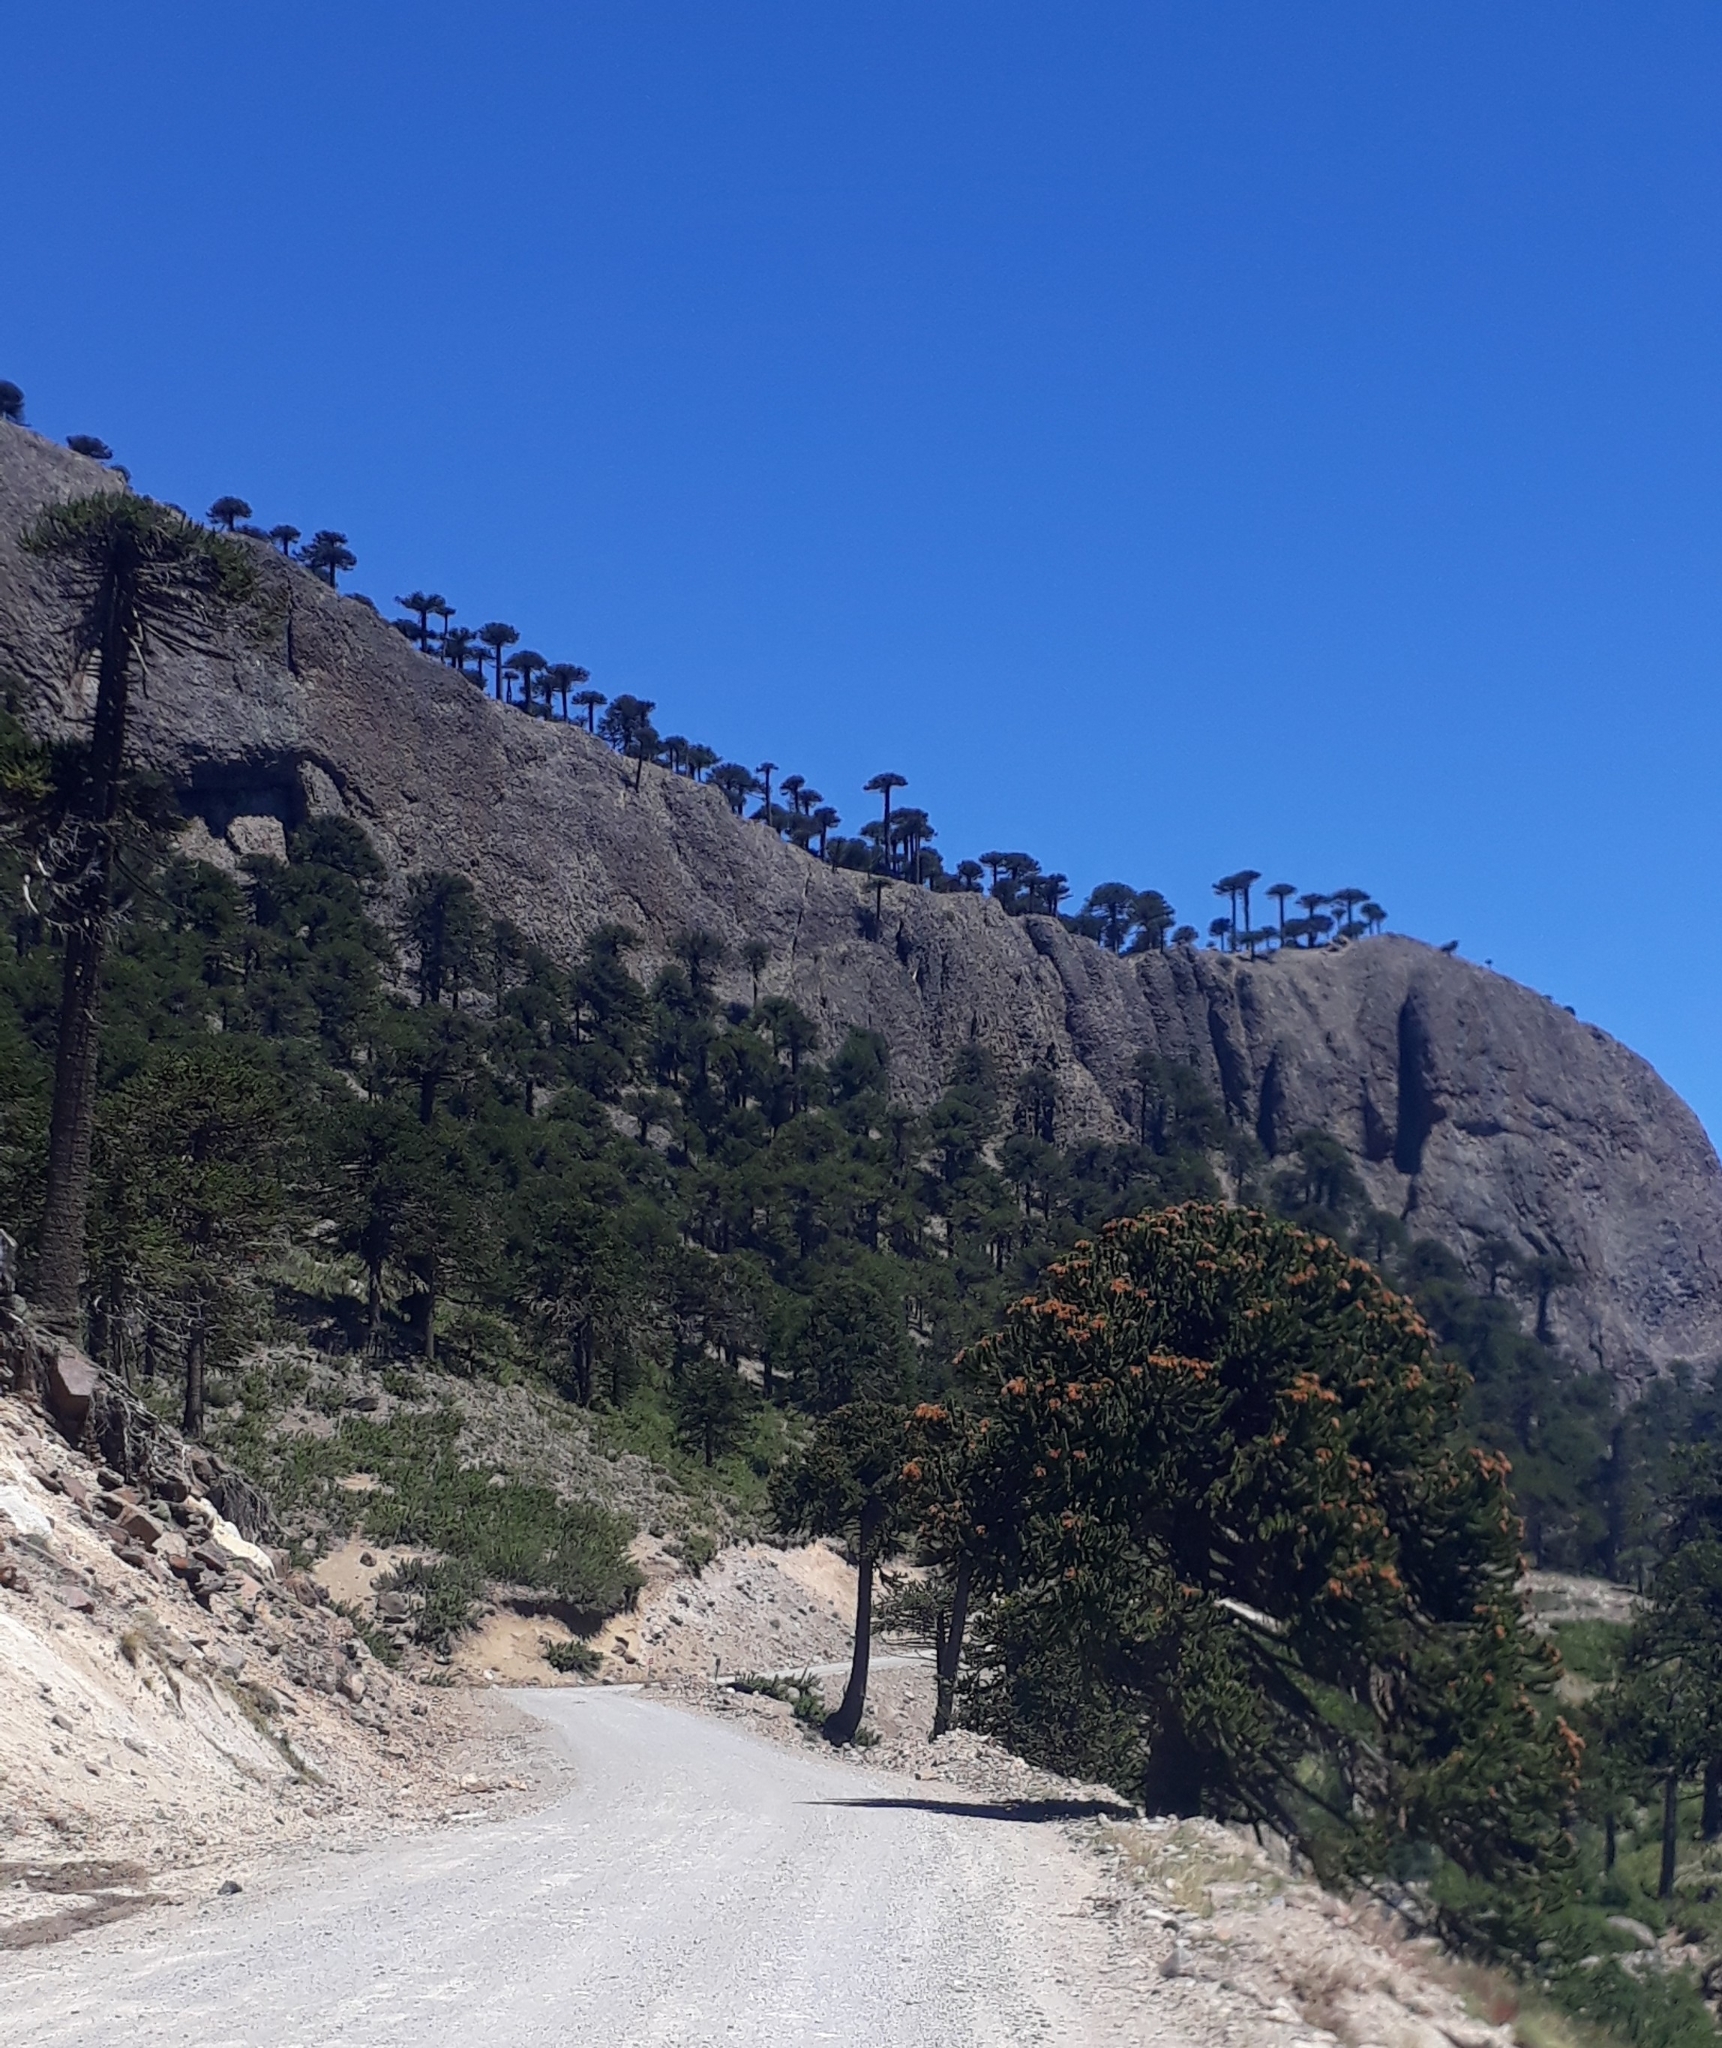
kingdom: Plantae
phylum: Tracheophyta
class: Pinopsida
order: Pinales
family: Araucariaceae
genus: Araucaria
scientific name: Araucaria araucana
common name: Monkey-puzzle
